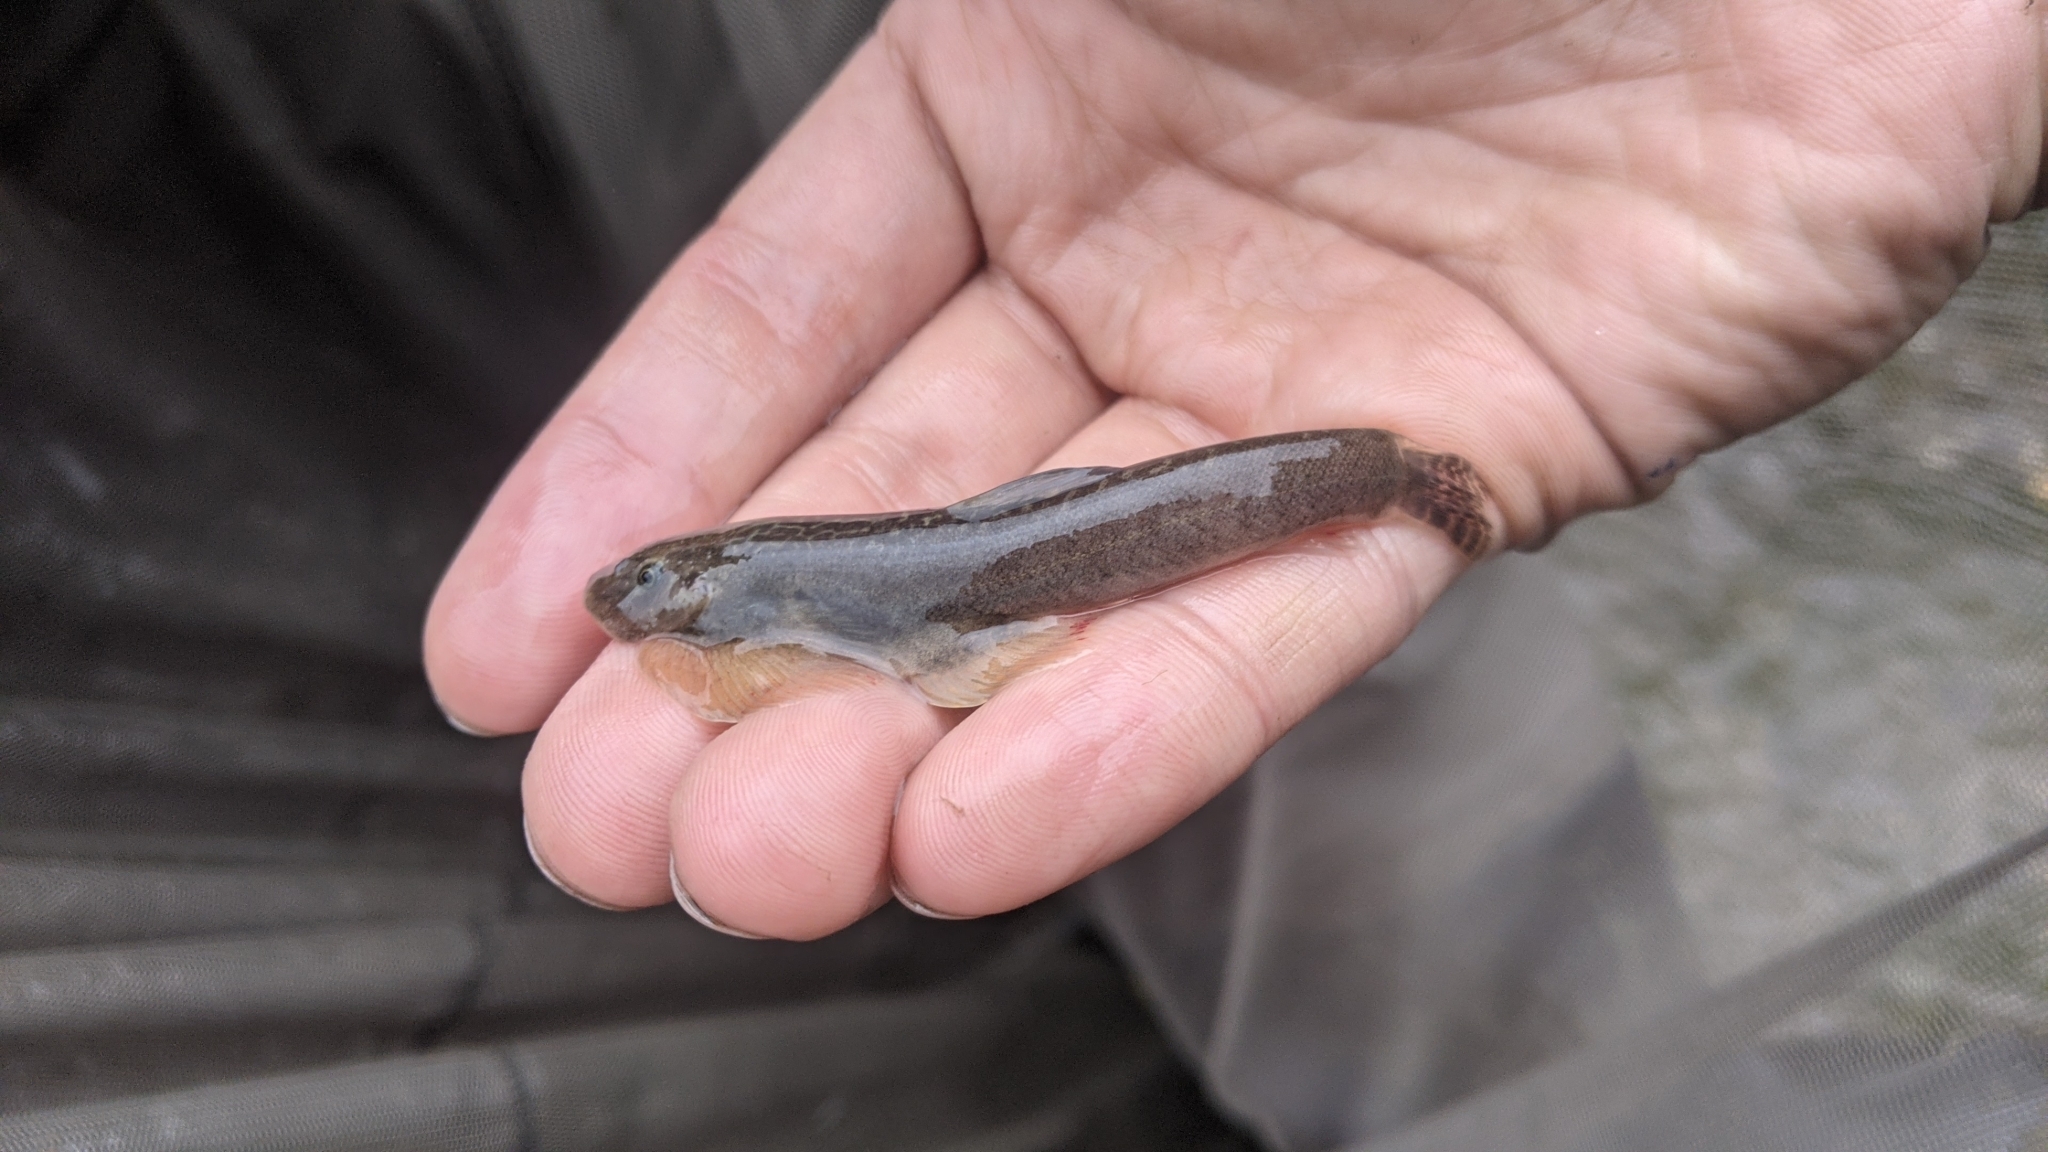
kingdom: Animalia
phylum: Chordata
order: Cypriniformes
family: Balitoridae
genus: Hemimyzon
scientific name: Hemimyzon taitungensis
